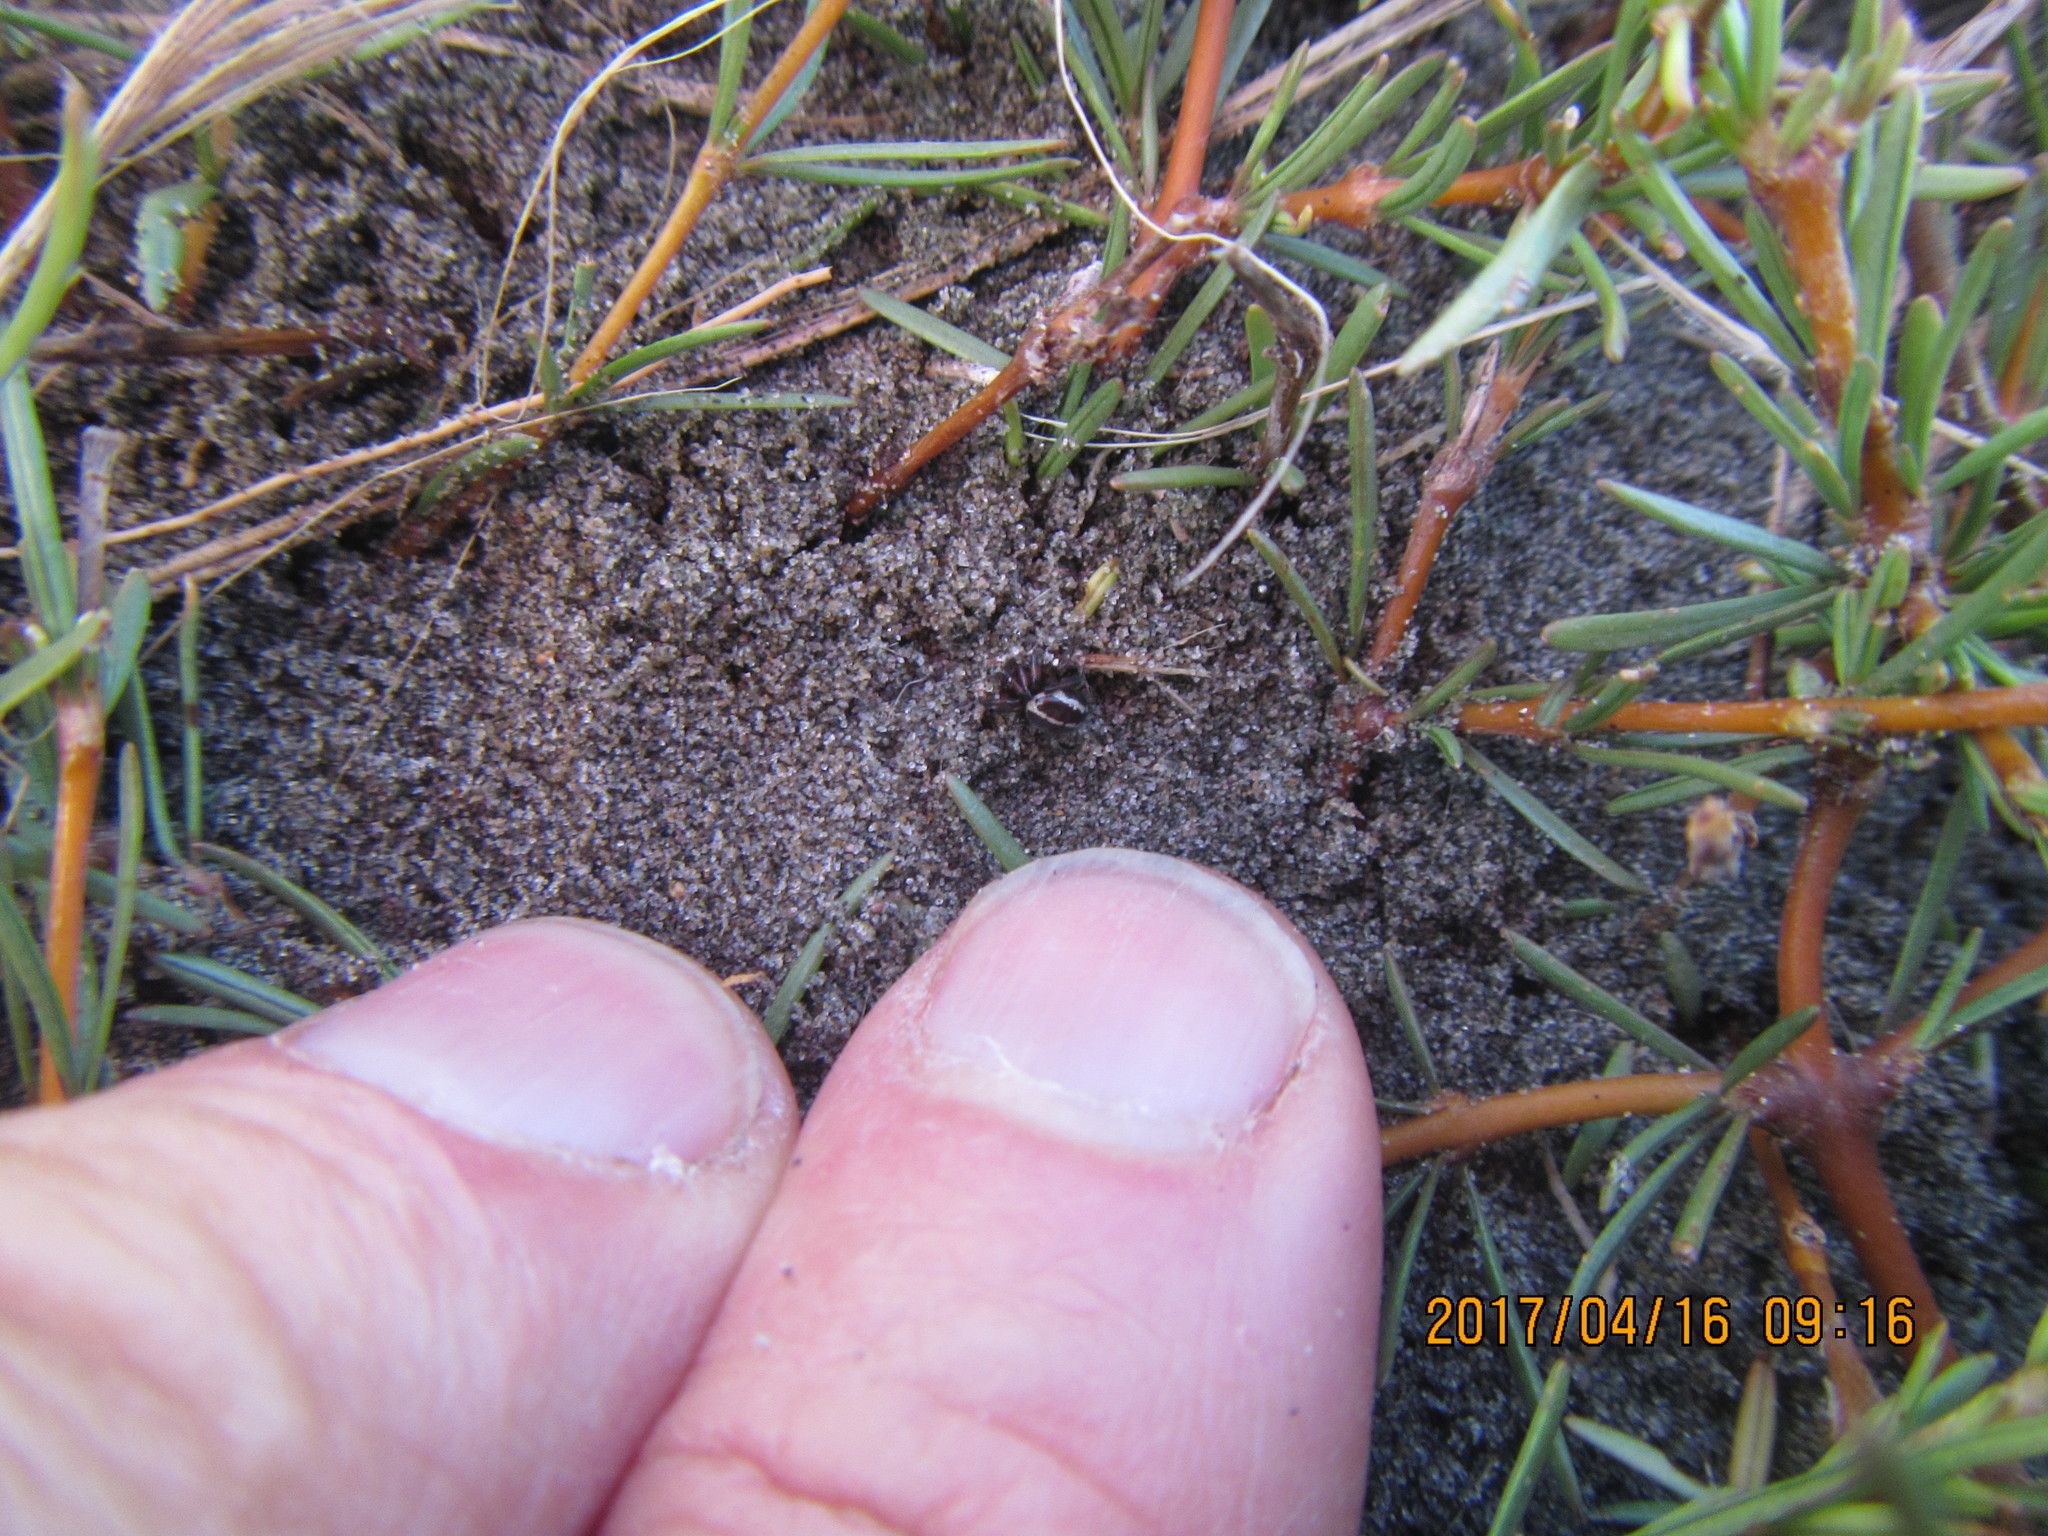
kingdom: Animalia
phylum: Arthropoda
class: Arachnida
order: Araneae
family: Theridiidae
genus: Steatoda
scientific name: Steatoda lepida
